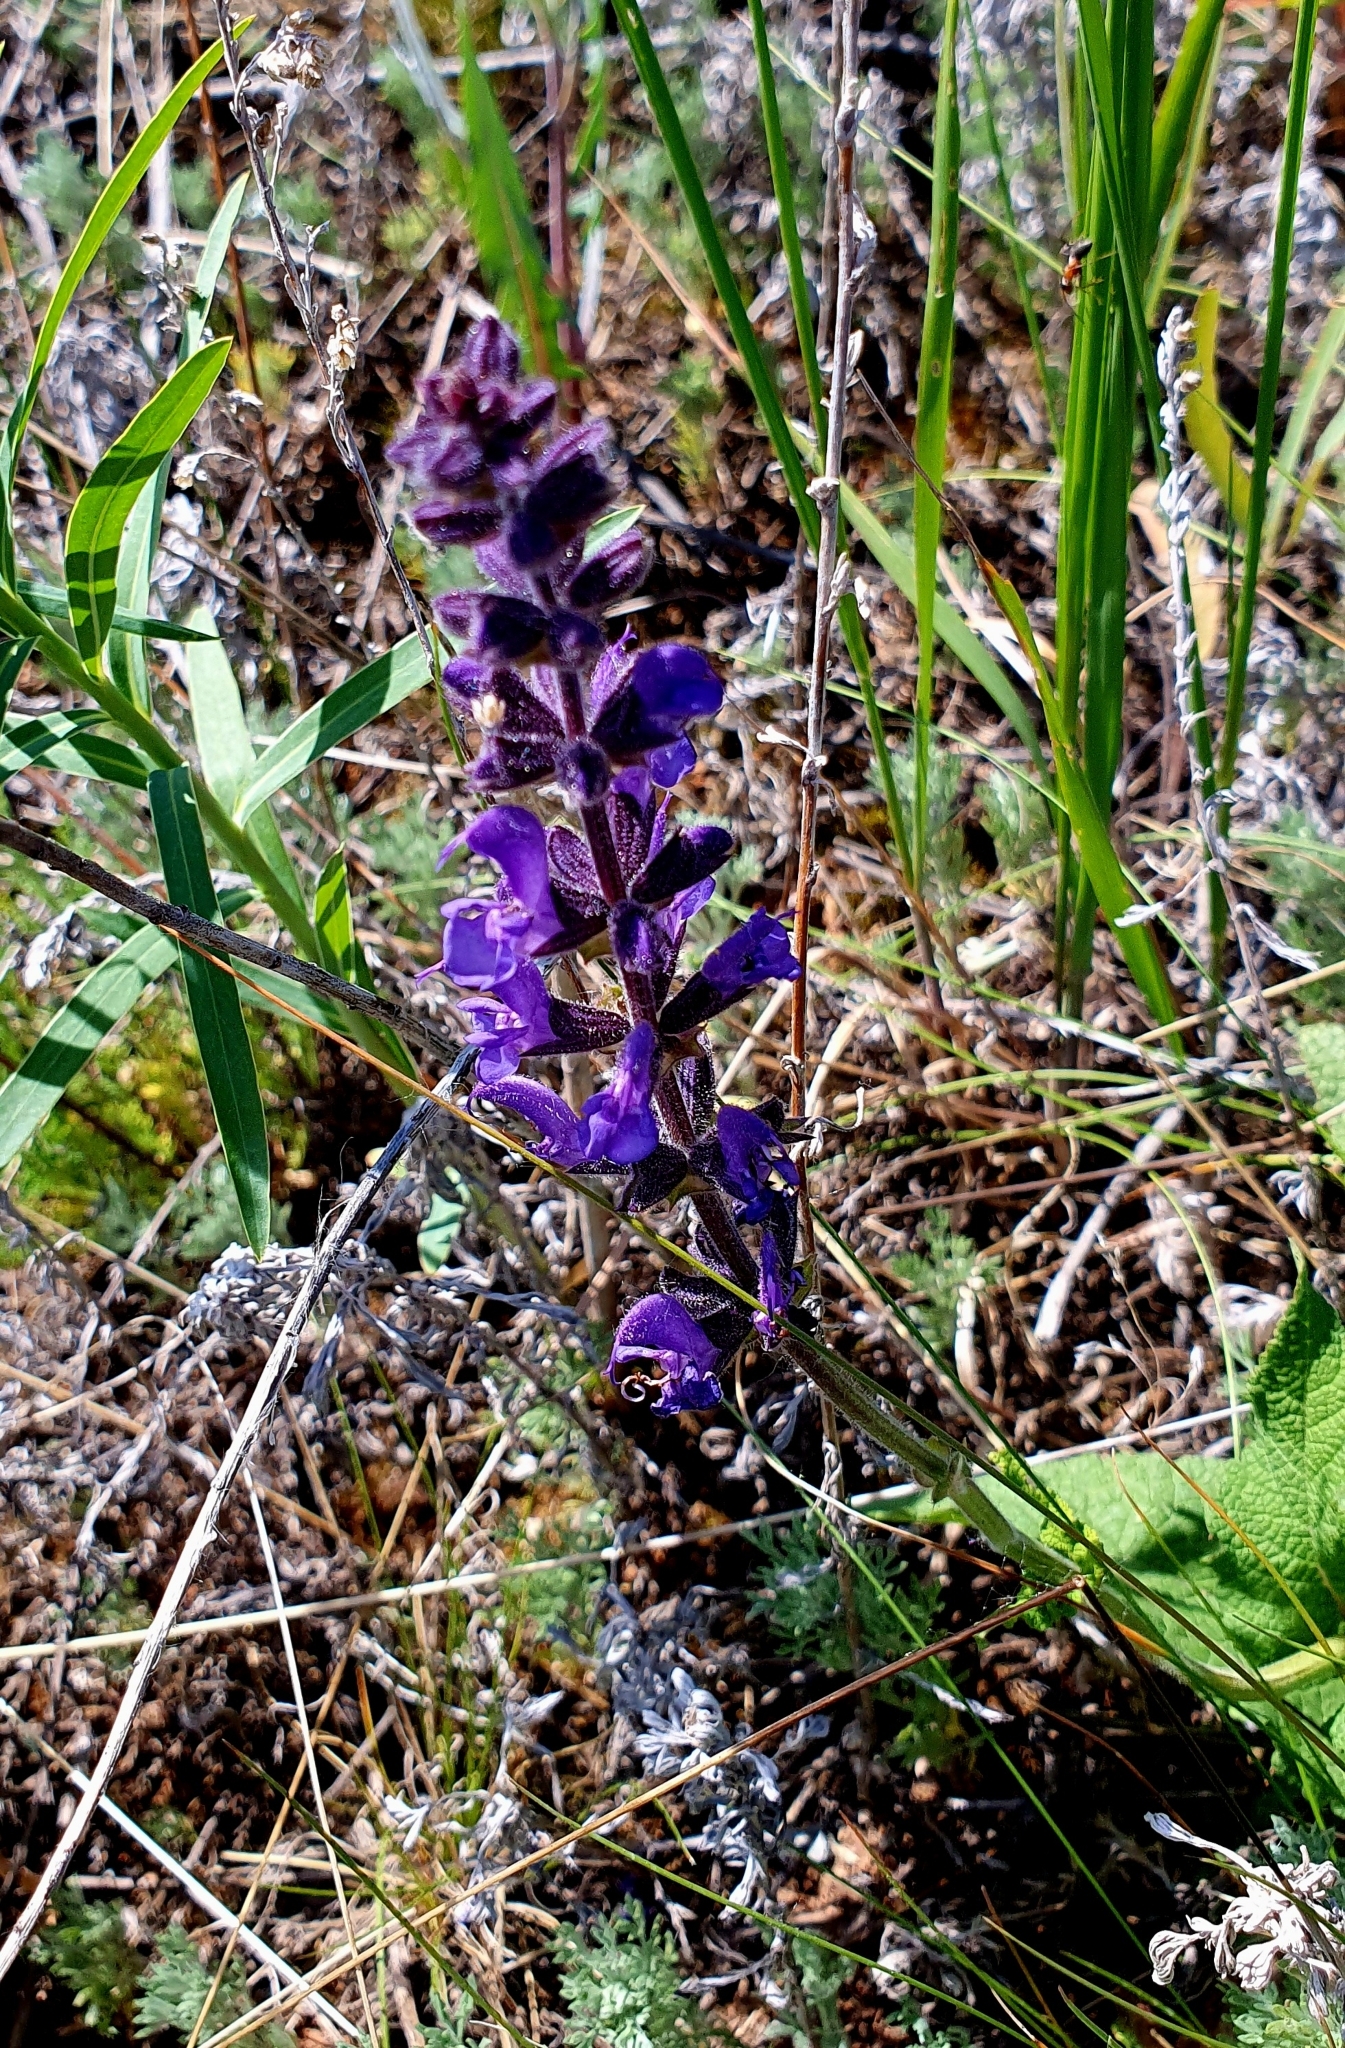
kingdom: Plantae
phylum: Tracheophyta
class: Magnoliopsida
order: Lamiales
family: Lamiaceae
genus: Salvia
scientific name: Salvia dumetorum
